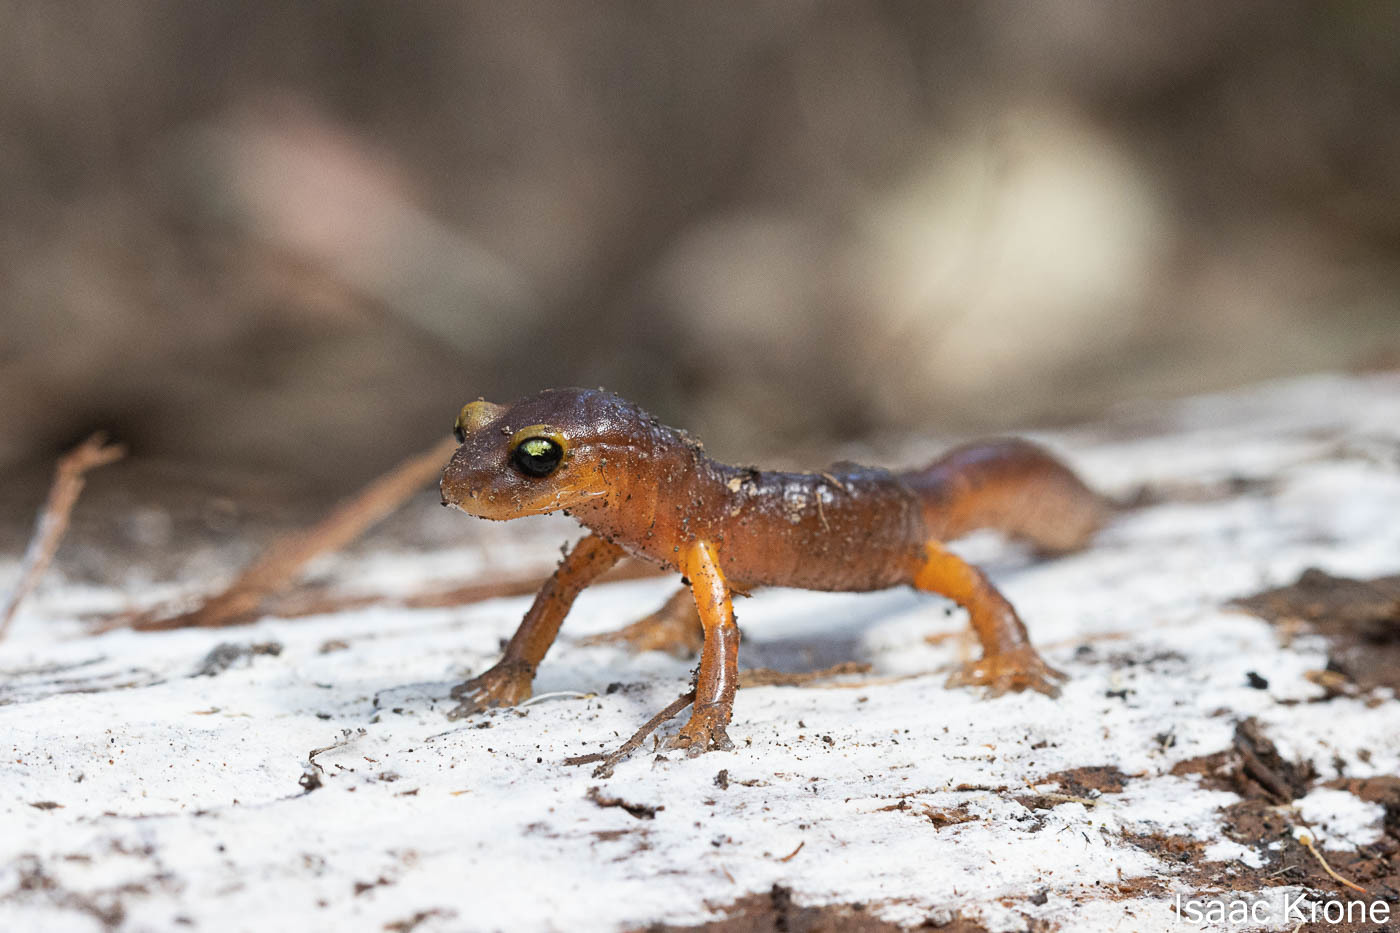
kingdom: Animalia
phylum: Chordata
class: Amphibia
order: Caudata
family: Plethodontidae
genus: Ensatina
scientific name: Ensatina eschscholtzii
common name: Ensatina
